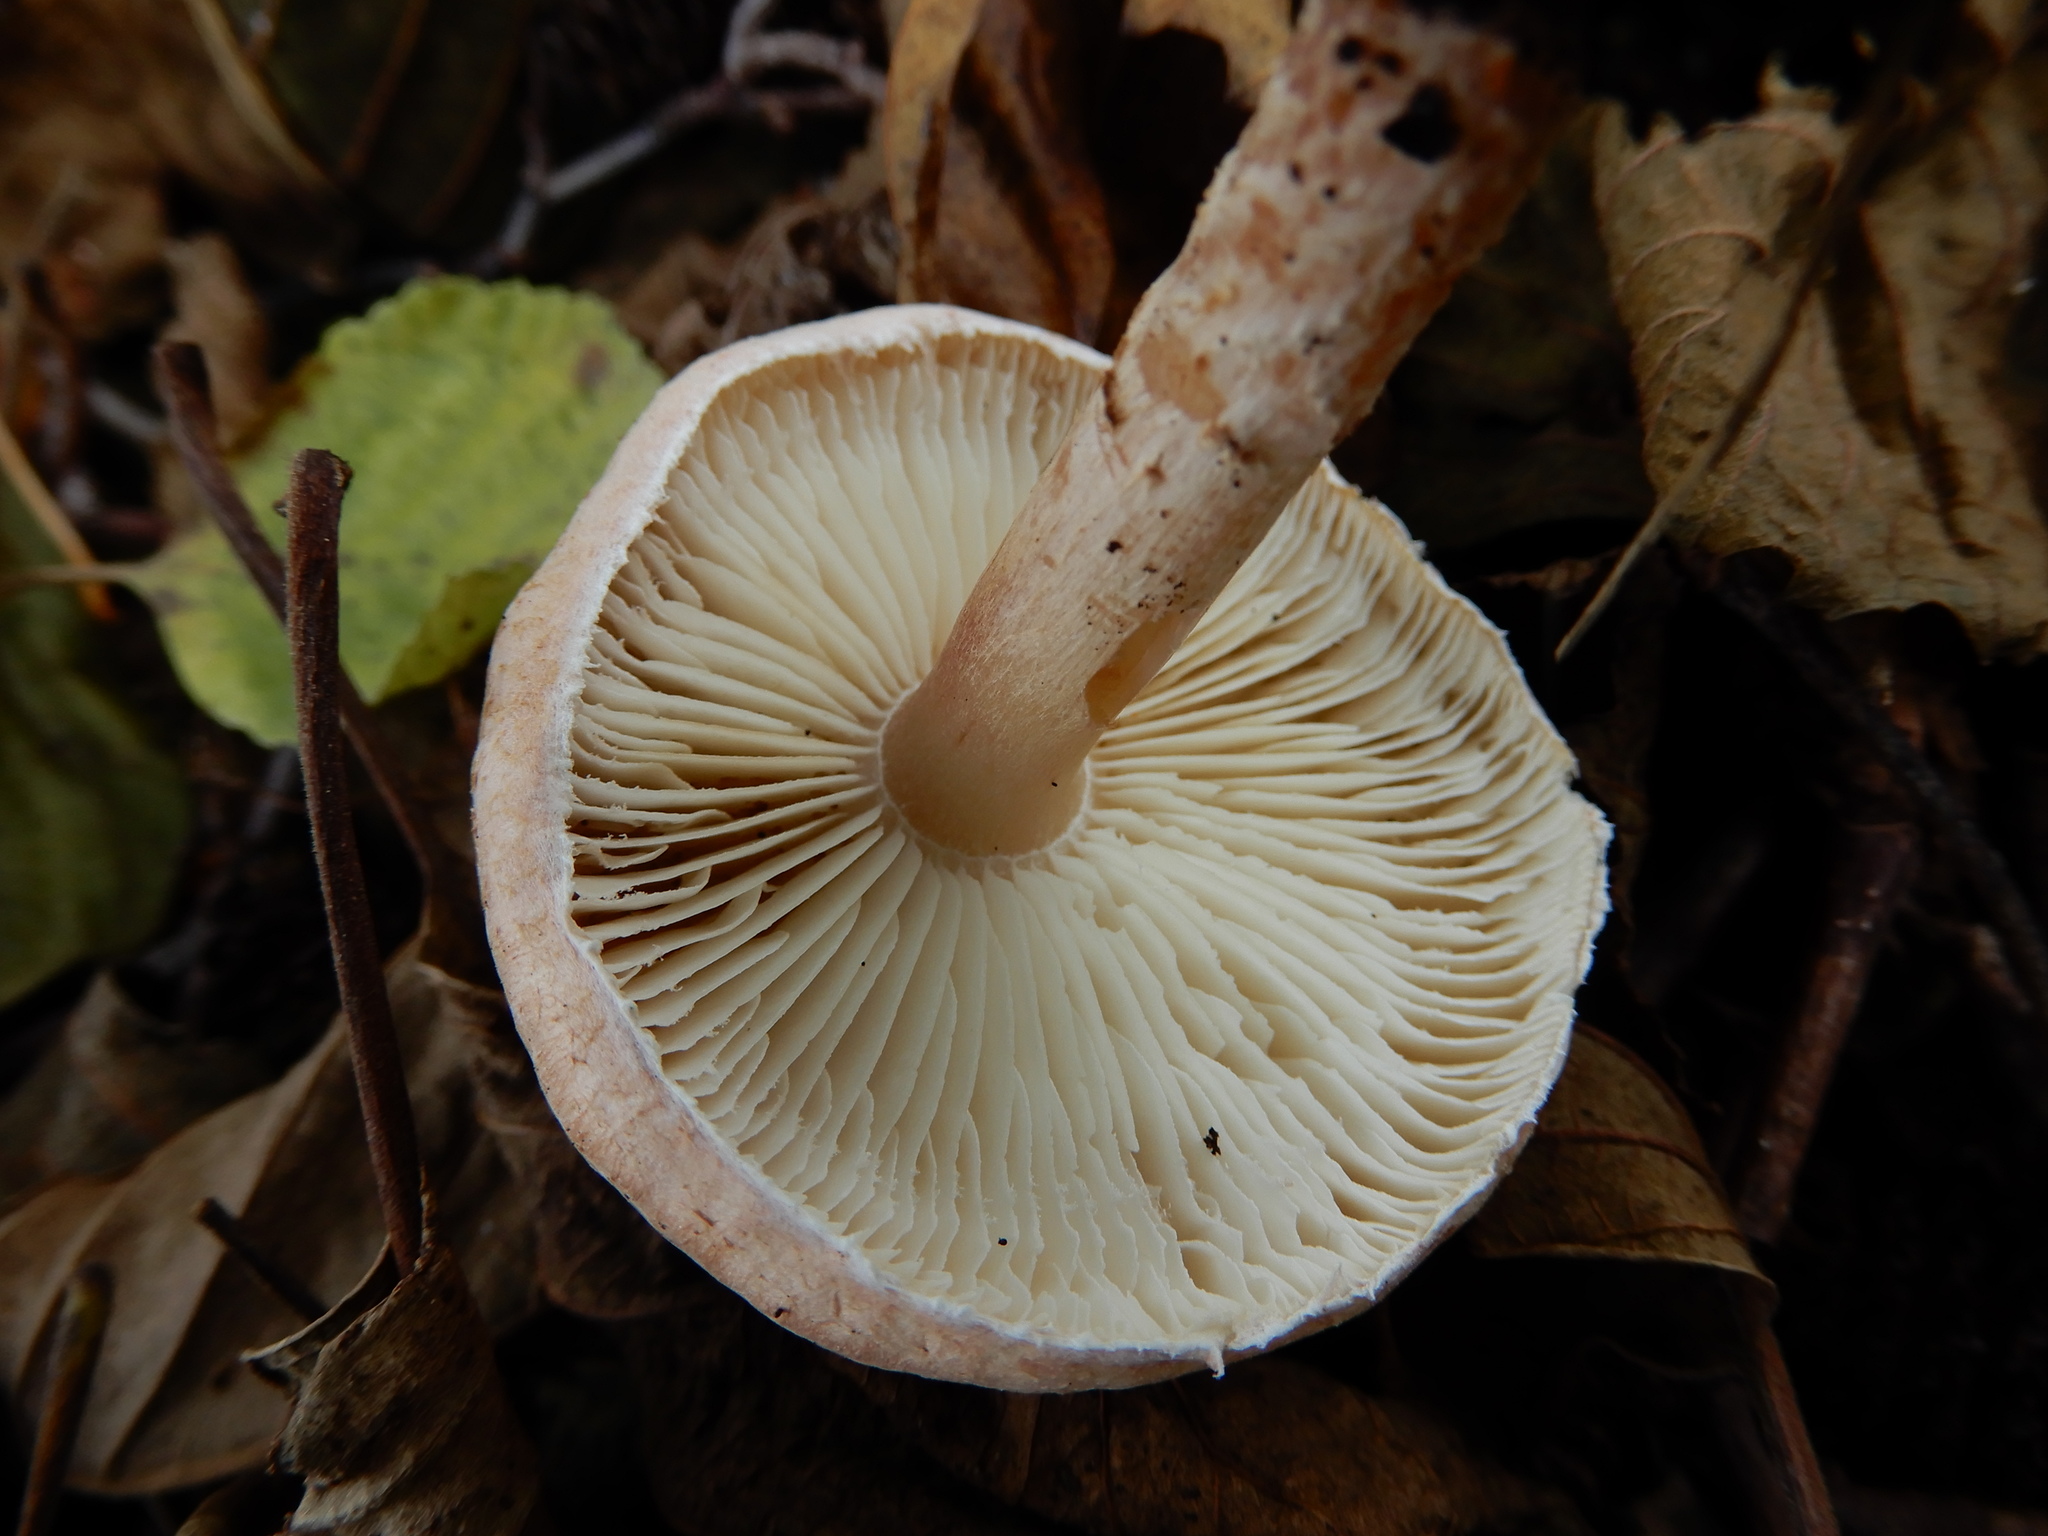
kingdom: Fungi
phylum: Basidiomycota
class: Agaricomycetes
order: Agaricales
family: Agaricaceae
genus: Lepiota
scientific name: Lepiota subincarnata
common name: Fatal dapperling
